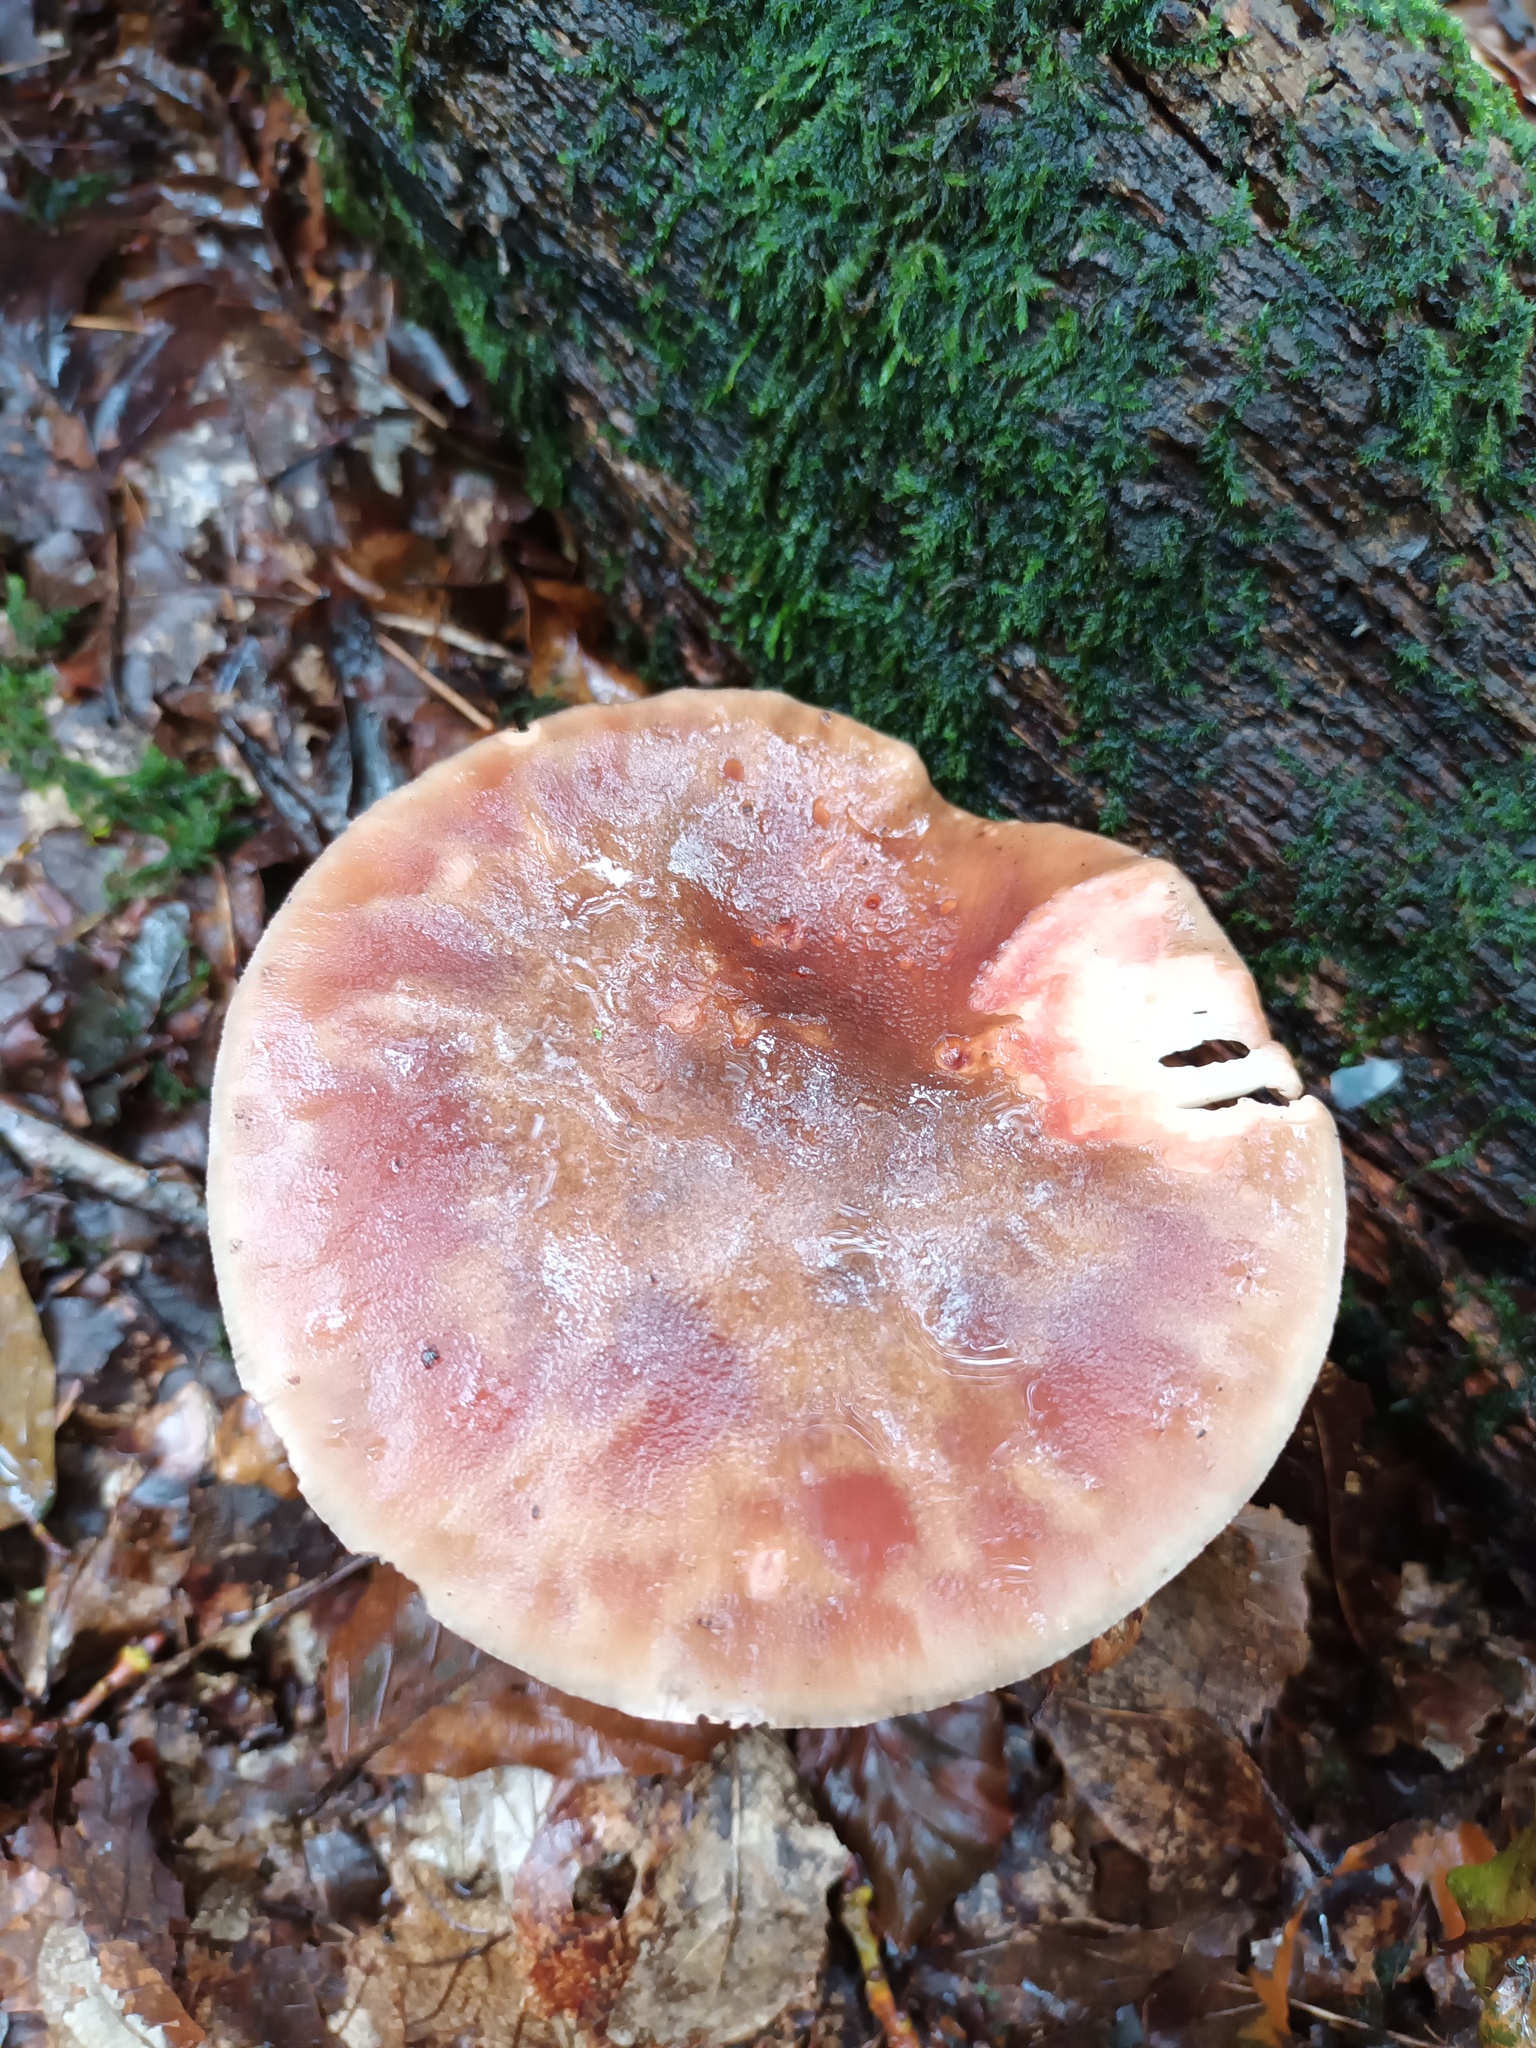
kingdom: Fungi
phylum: Basidiomycota
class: Agaricomycetes
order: Agaricales
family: Amanitaceae
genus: Amanita
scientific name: Amanita rubescens
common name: Blusher
